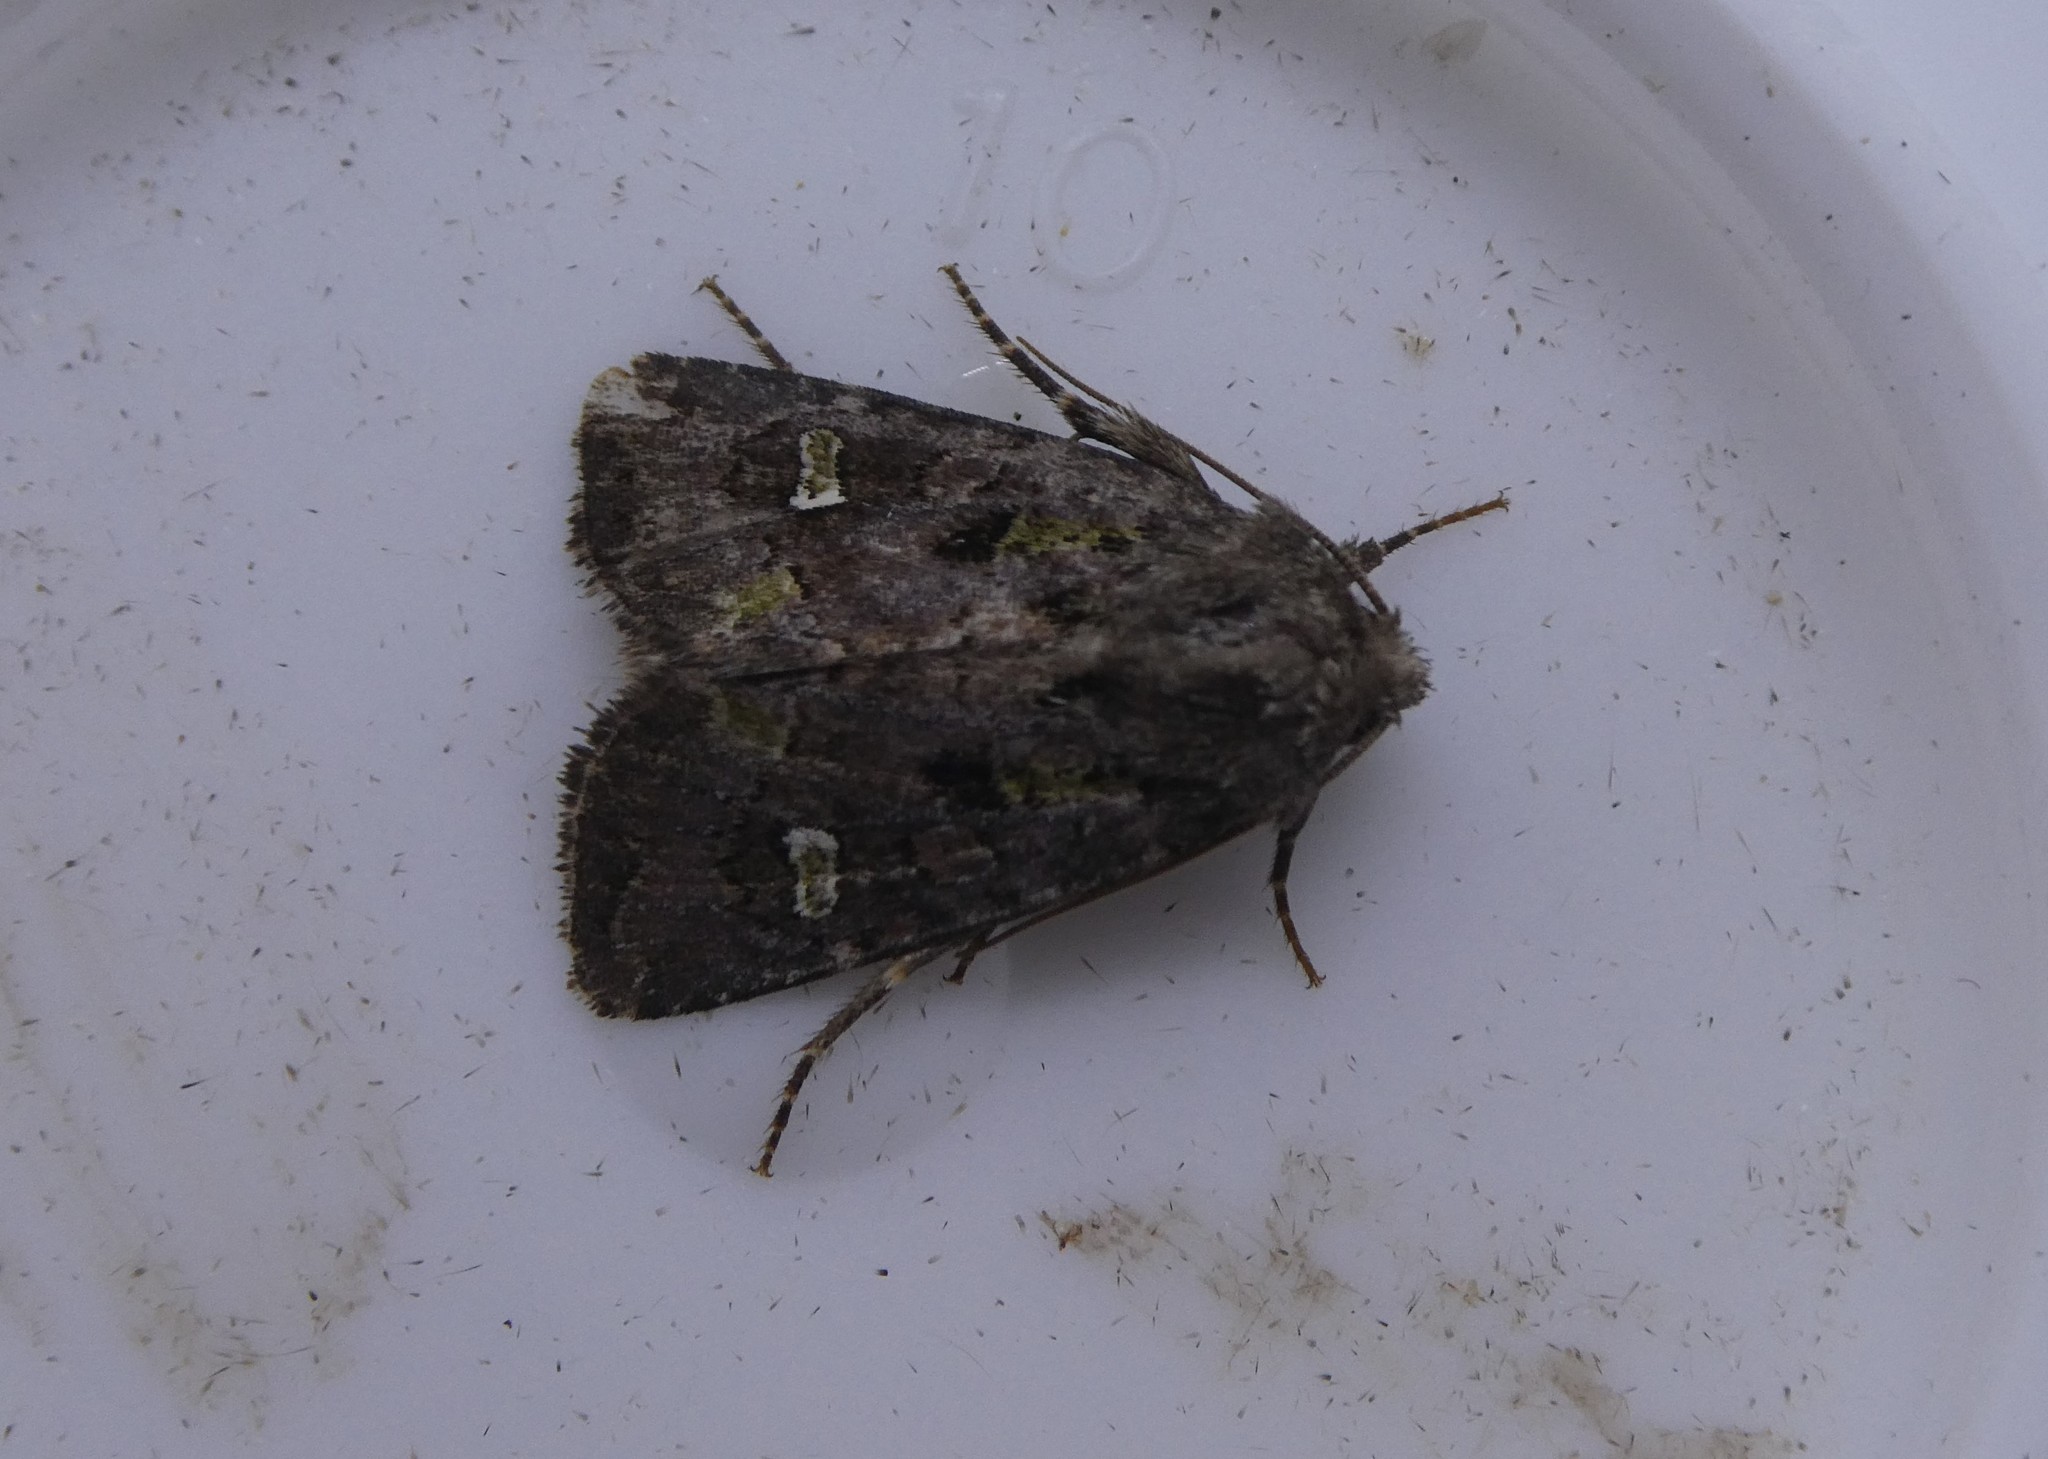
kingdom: Animalia
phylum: Arthropoda
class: Insecta
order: Lepidoptera
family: Noctuidae
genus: Lacinipolia
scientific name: Lacinipolia renigera
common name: Kidney-spotted minor
